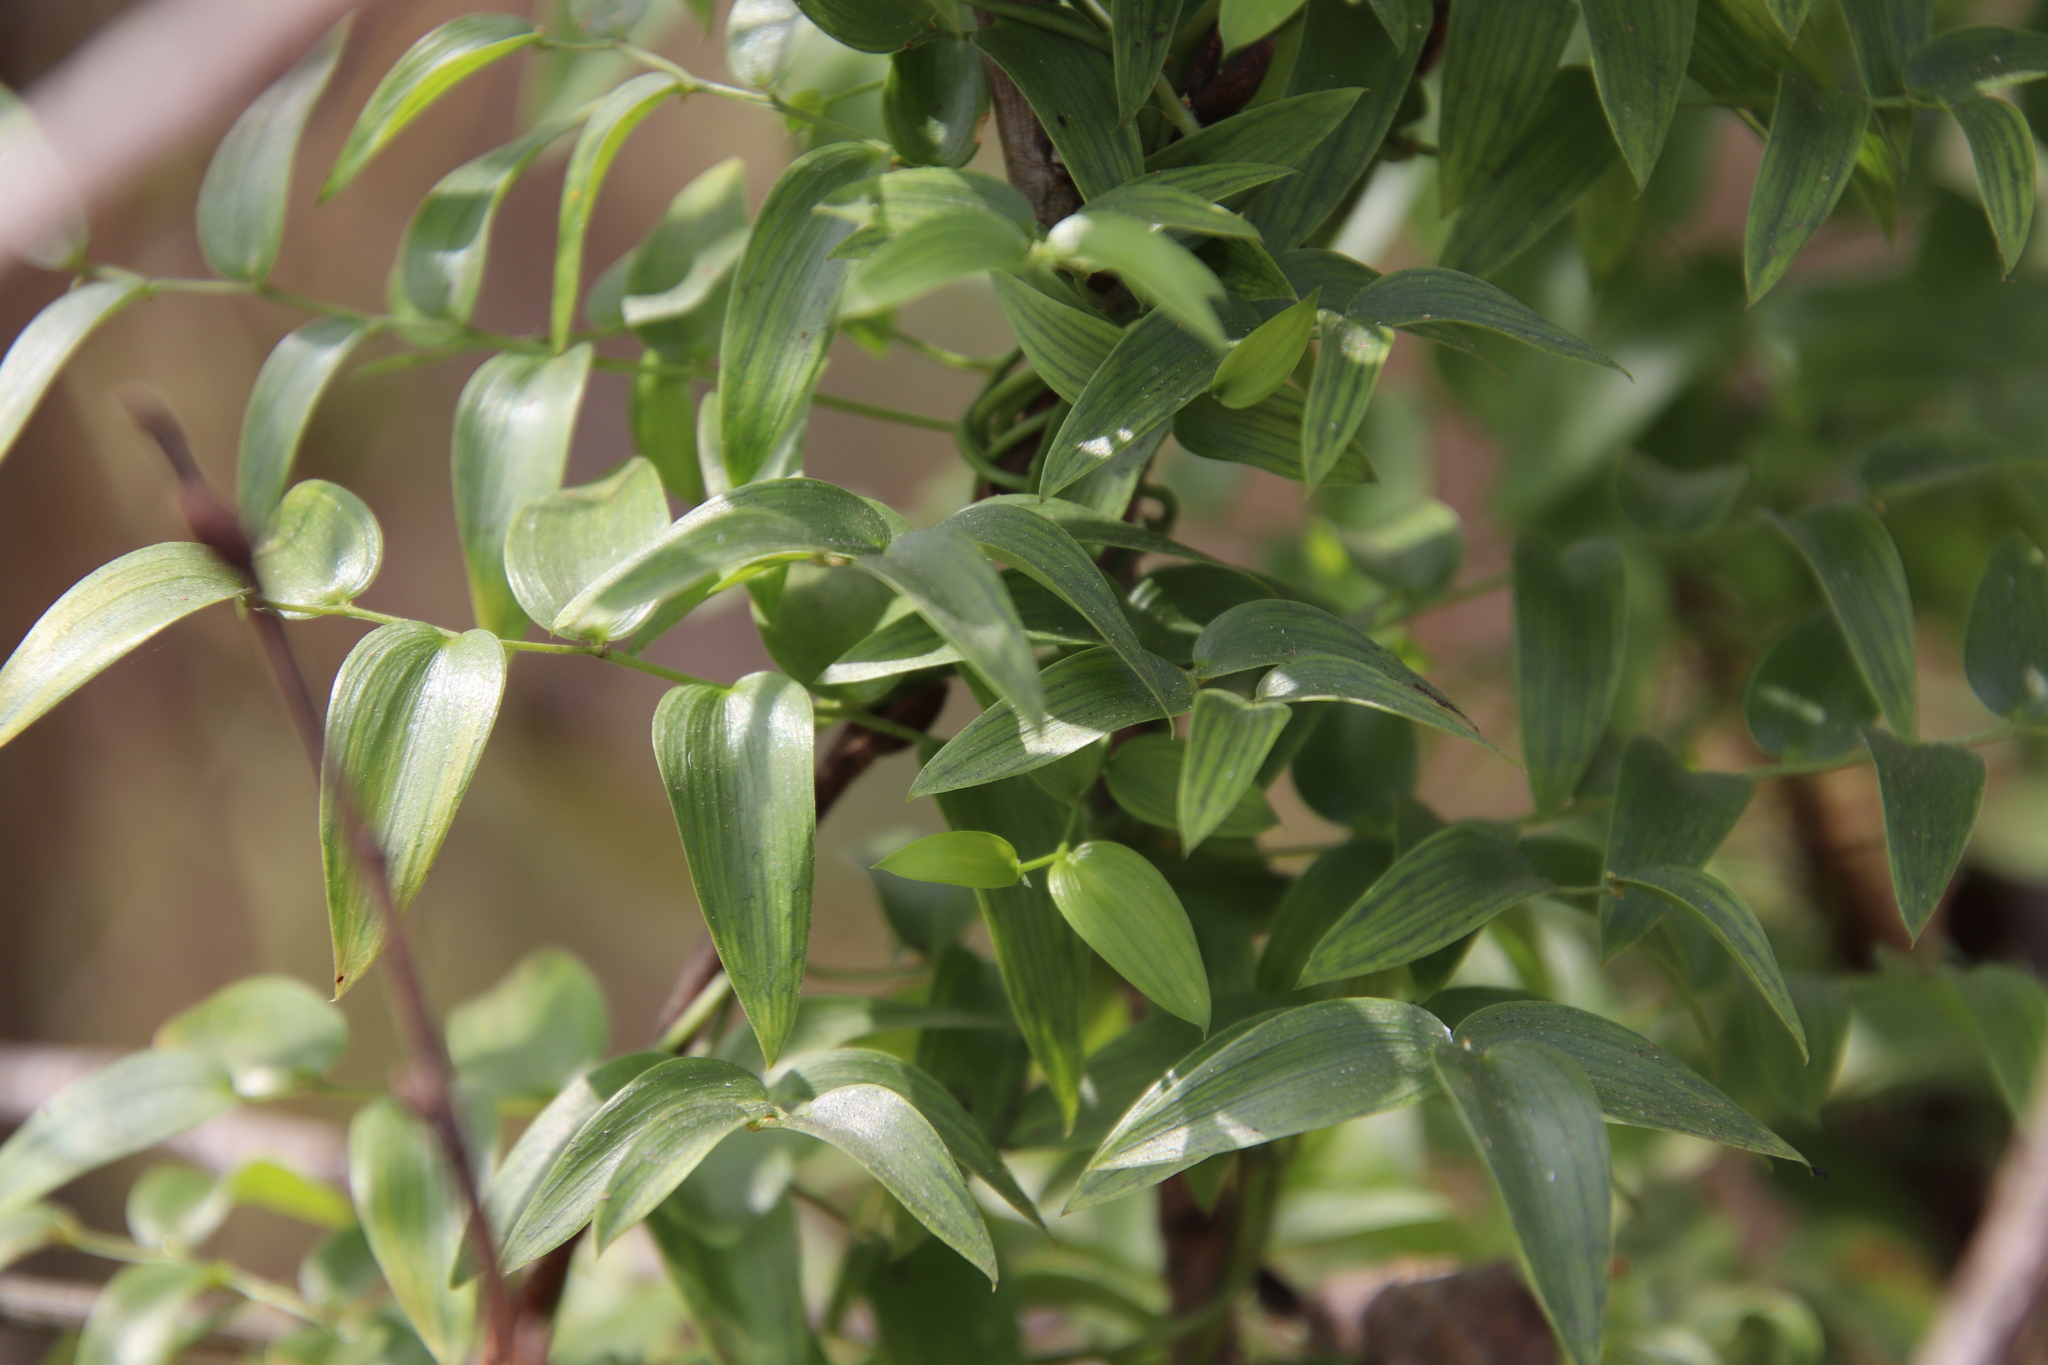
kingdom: Plantae
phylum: Tracheophyta
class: Liliopsida
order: Asparagales
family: Asparagaceae
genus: Asparagus
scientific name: Asparagus asparagoides
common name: African asparagus fern
